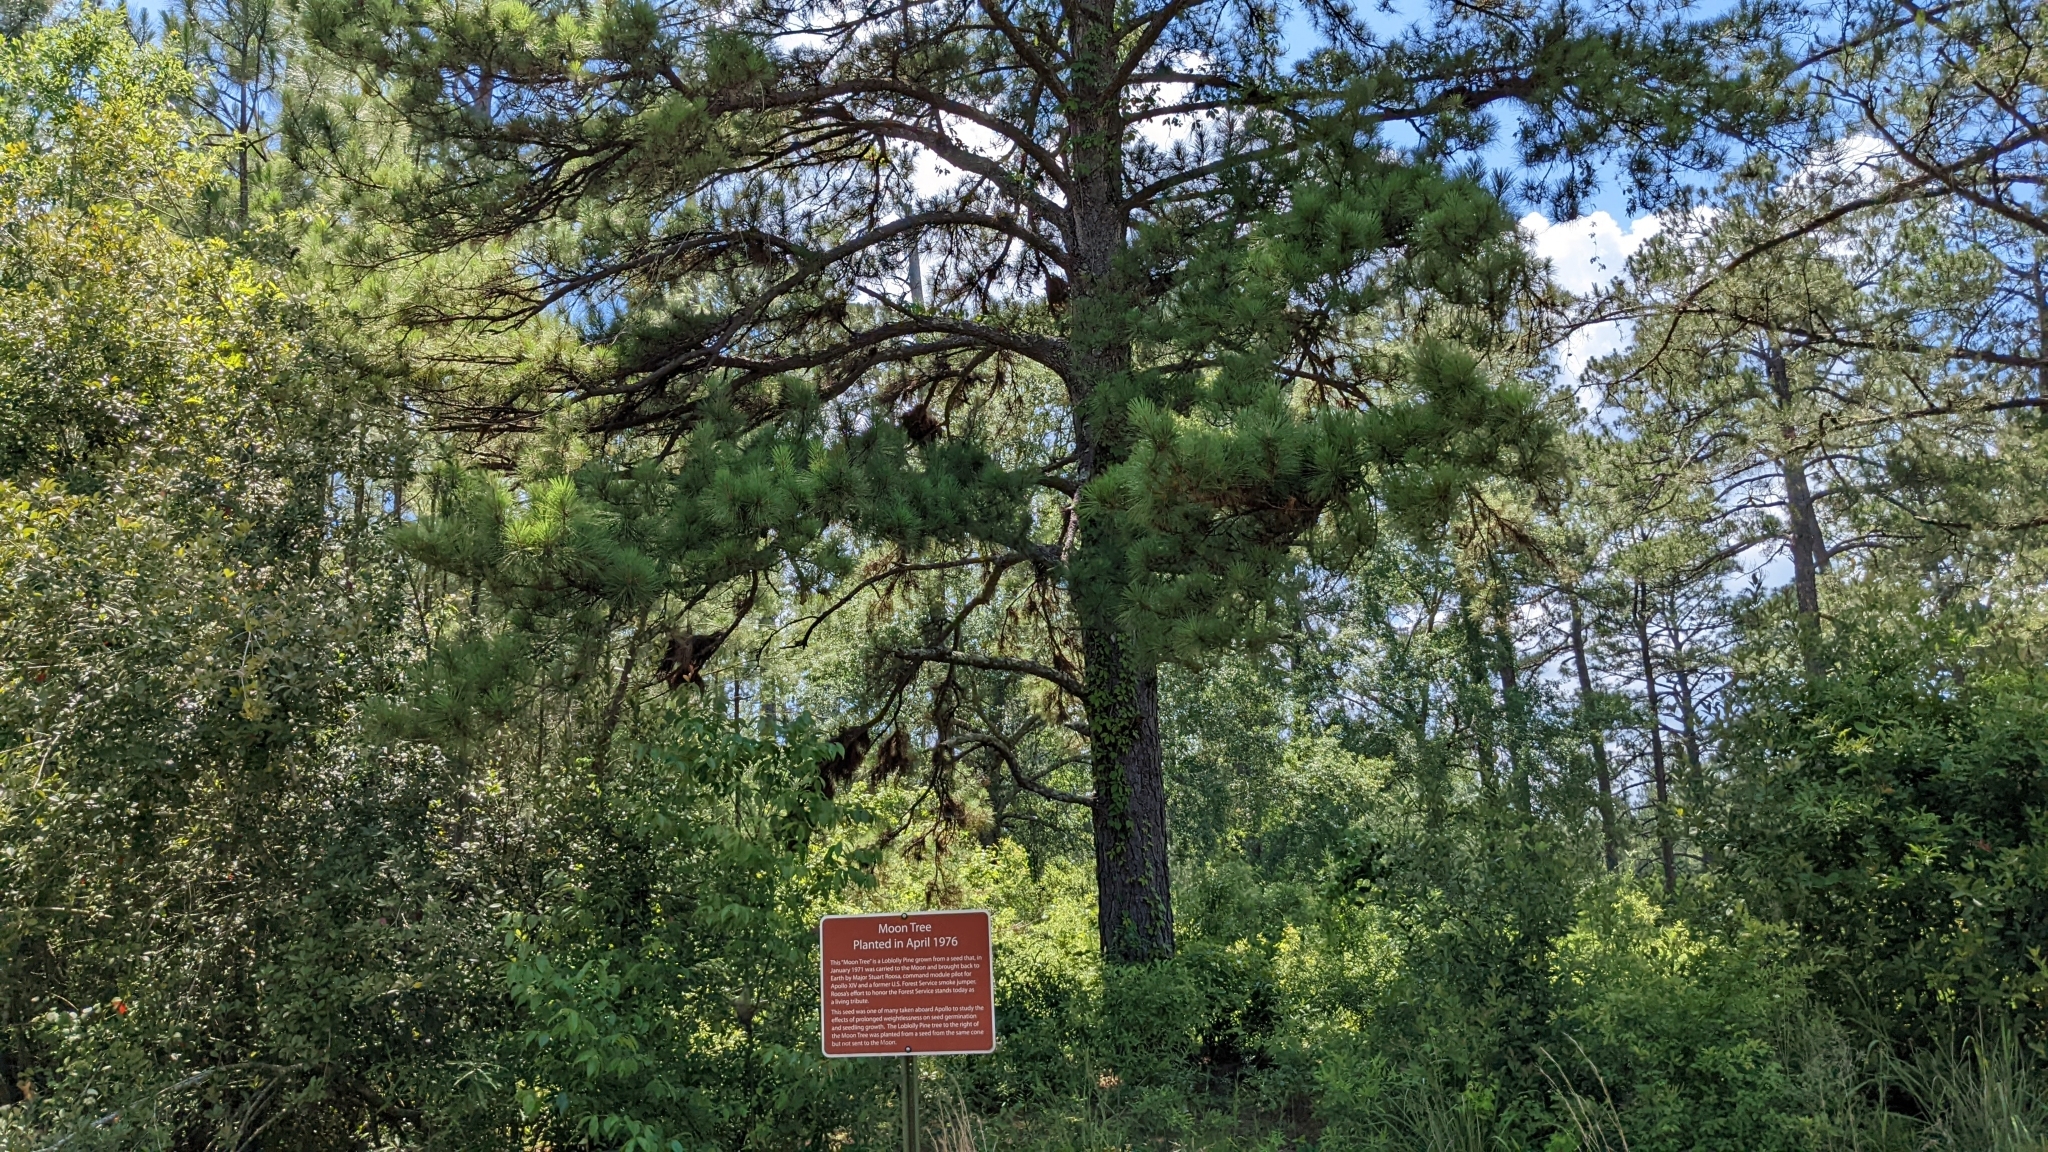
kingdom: Plantae
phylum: Tracheophyta
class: Pinopsida
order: Pinales
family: Pinaceae
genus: Pinus
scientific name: Pinus taeda
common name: Loblolly pine
